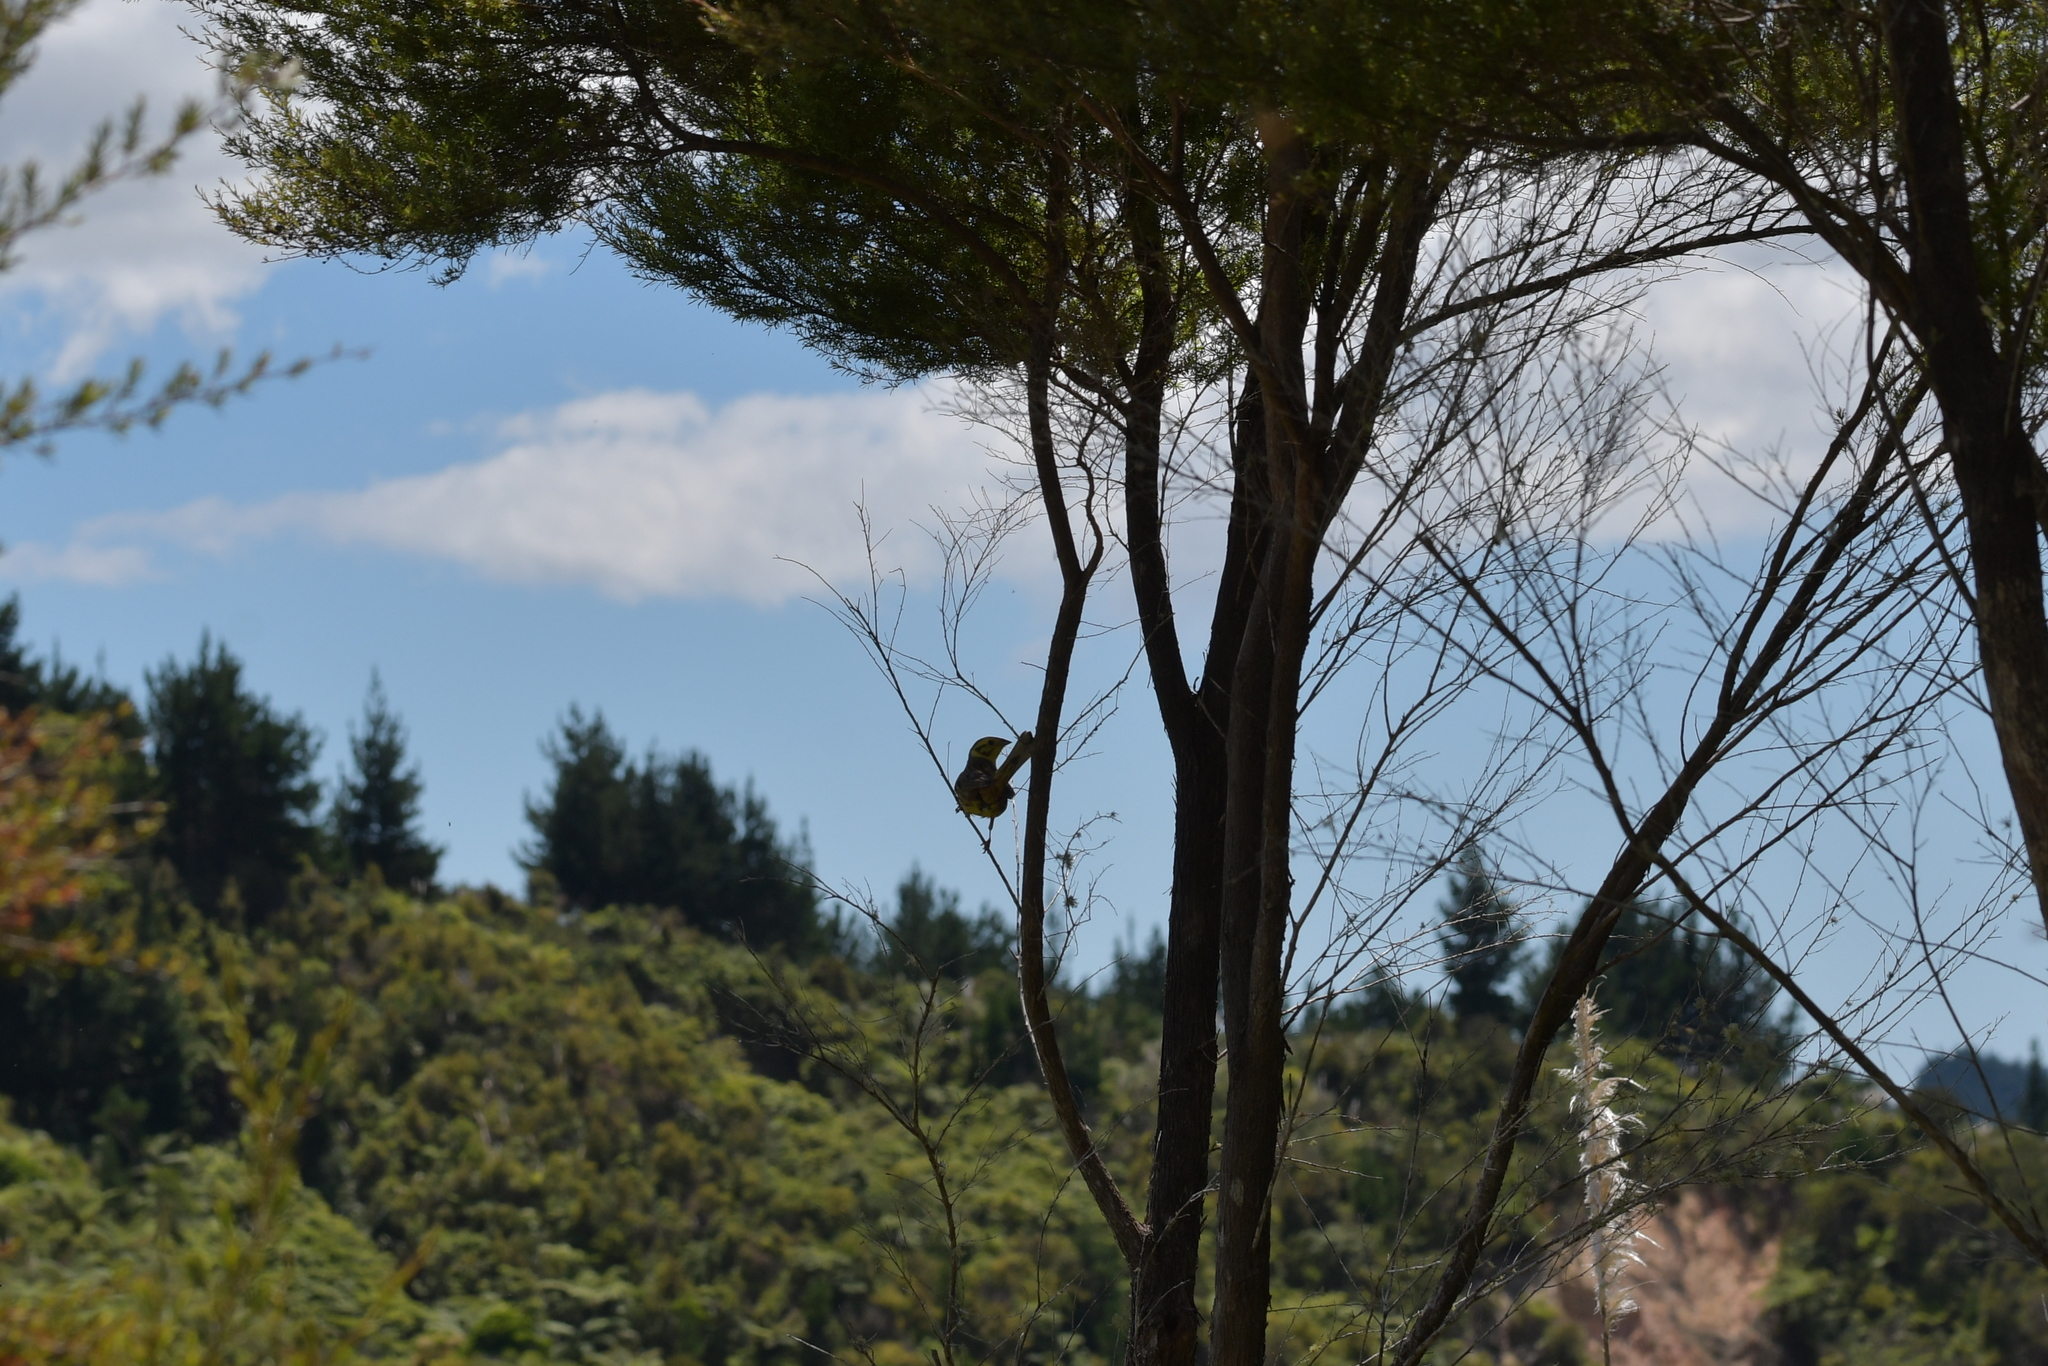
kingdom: Animalia
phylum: Chordata
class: Aves
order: Passeriformes
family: Emberizidae
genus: Emberiza
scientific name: Emberiza citrinella
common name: Yellowhammer
